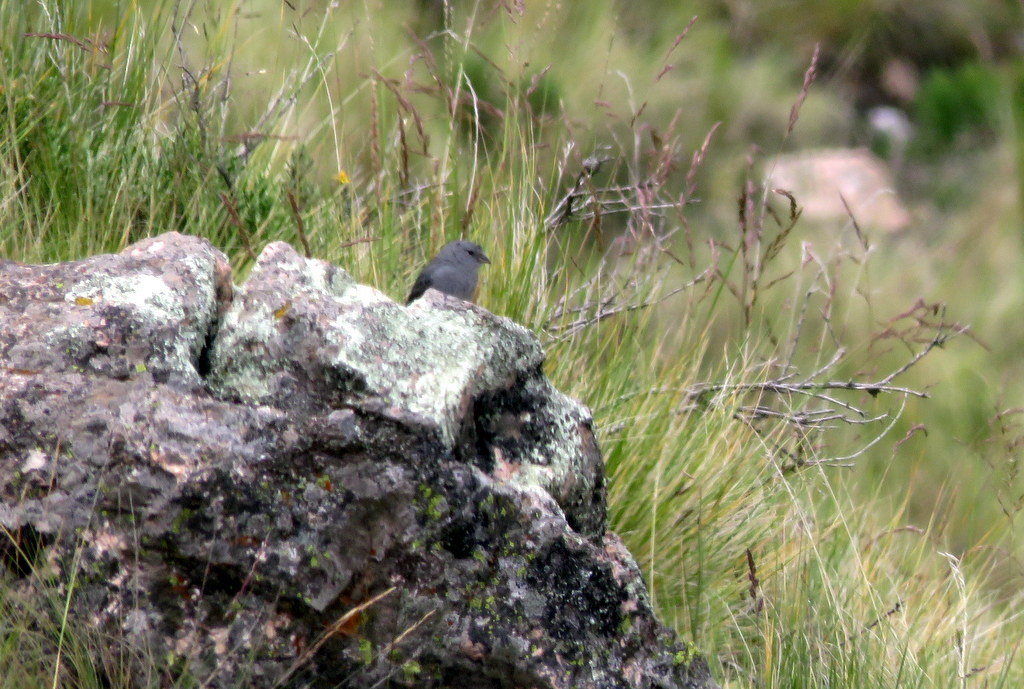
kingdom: Animalia
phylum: Chordata
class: Aves
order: Passeriformes
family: Thraupidae
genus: Geospizopsis
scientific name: Geospizopsis unicolor
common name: Plumbeous sierra-finch
